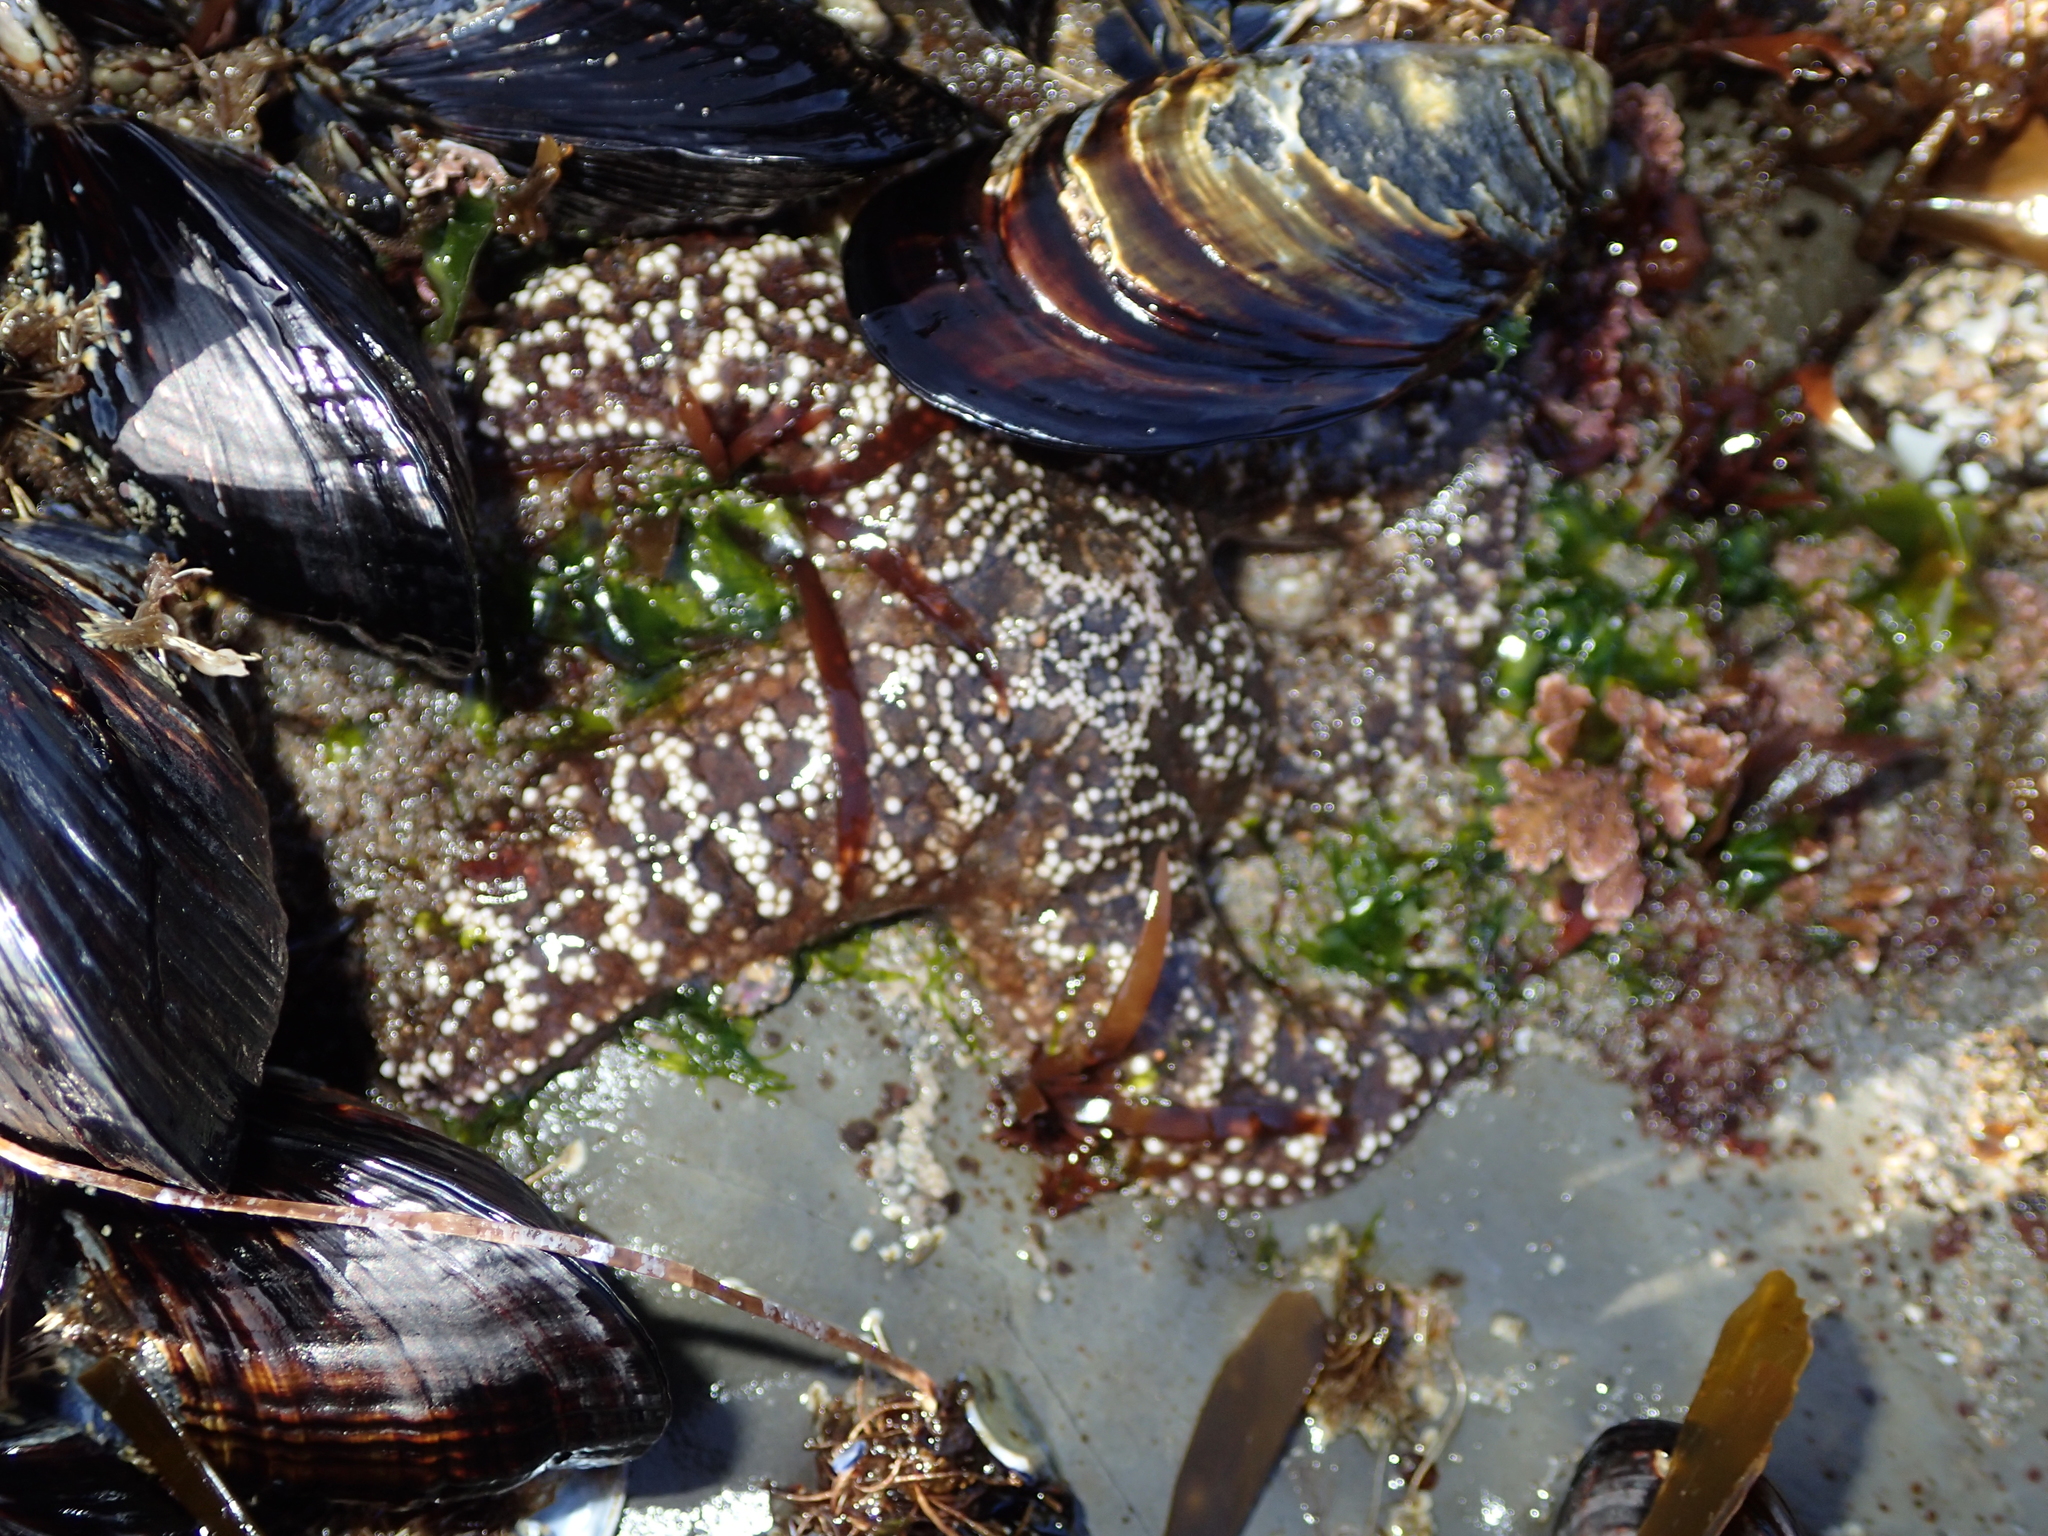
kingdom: Animalia
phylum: Echinodermata
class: Asteroidea
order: Forcipulatida
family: Asteriidae
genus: Pisaster
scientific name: Pisaster ochraceus
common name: Ochre stars
